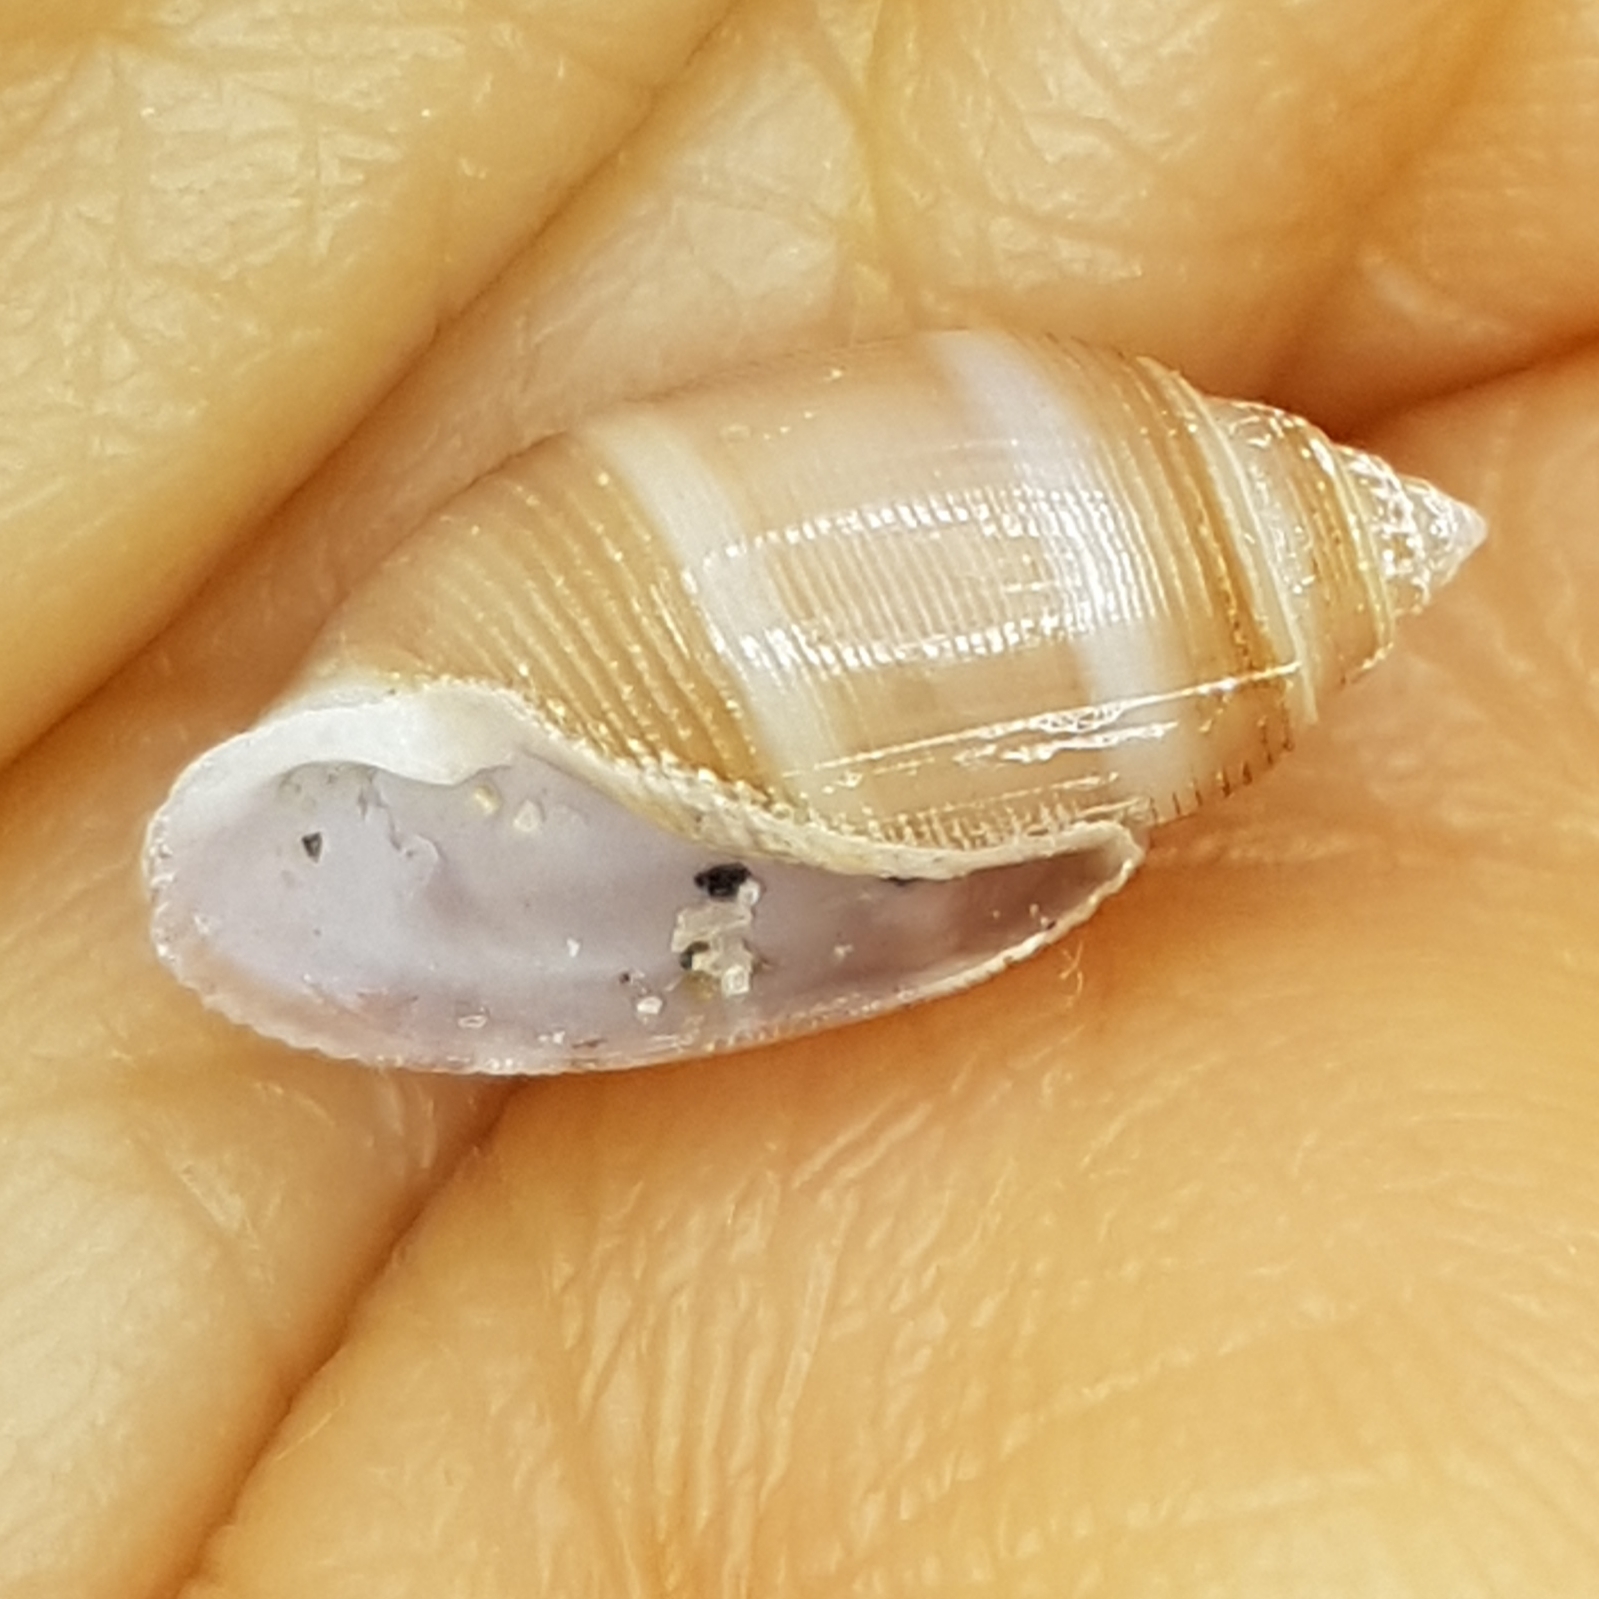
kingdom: Animalia
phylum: Mollusca
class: Gastropoda
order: Cephalaspidea
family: Acteonidae
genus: Acteon
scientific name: Acteon tornatilis
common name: European acteon
